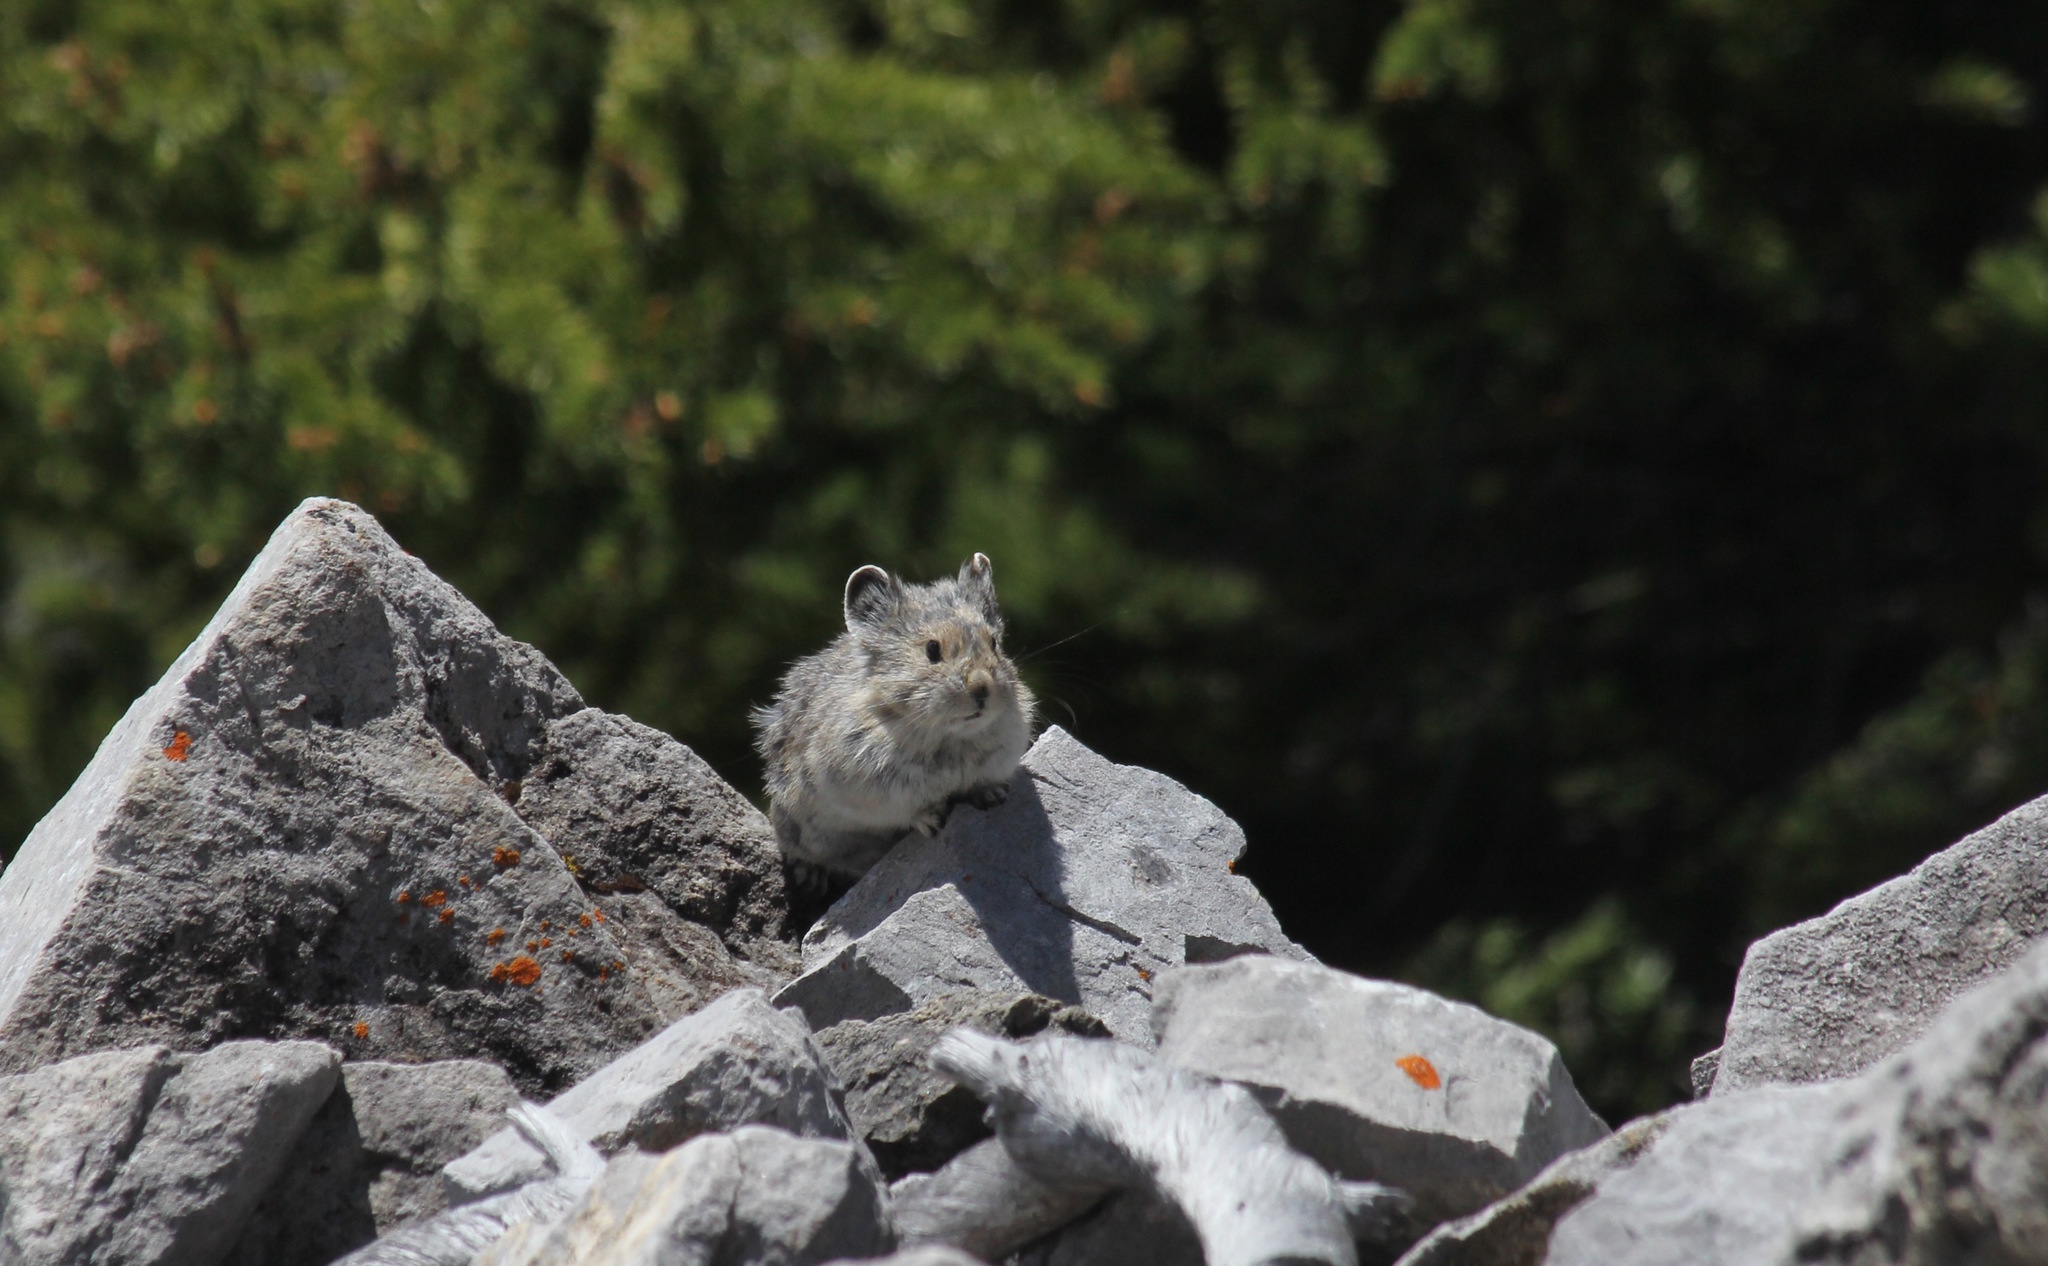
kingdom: Animalia
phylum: Chordata
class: Mammalia
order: Lagomorpha
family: Ochotonidae
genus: Ochotona
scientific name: Ochotona princeps
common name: American pika
